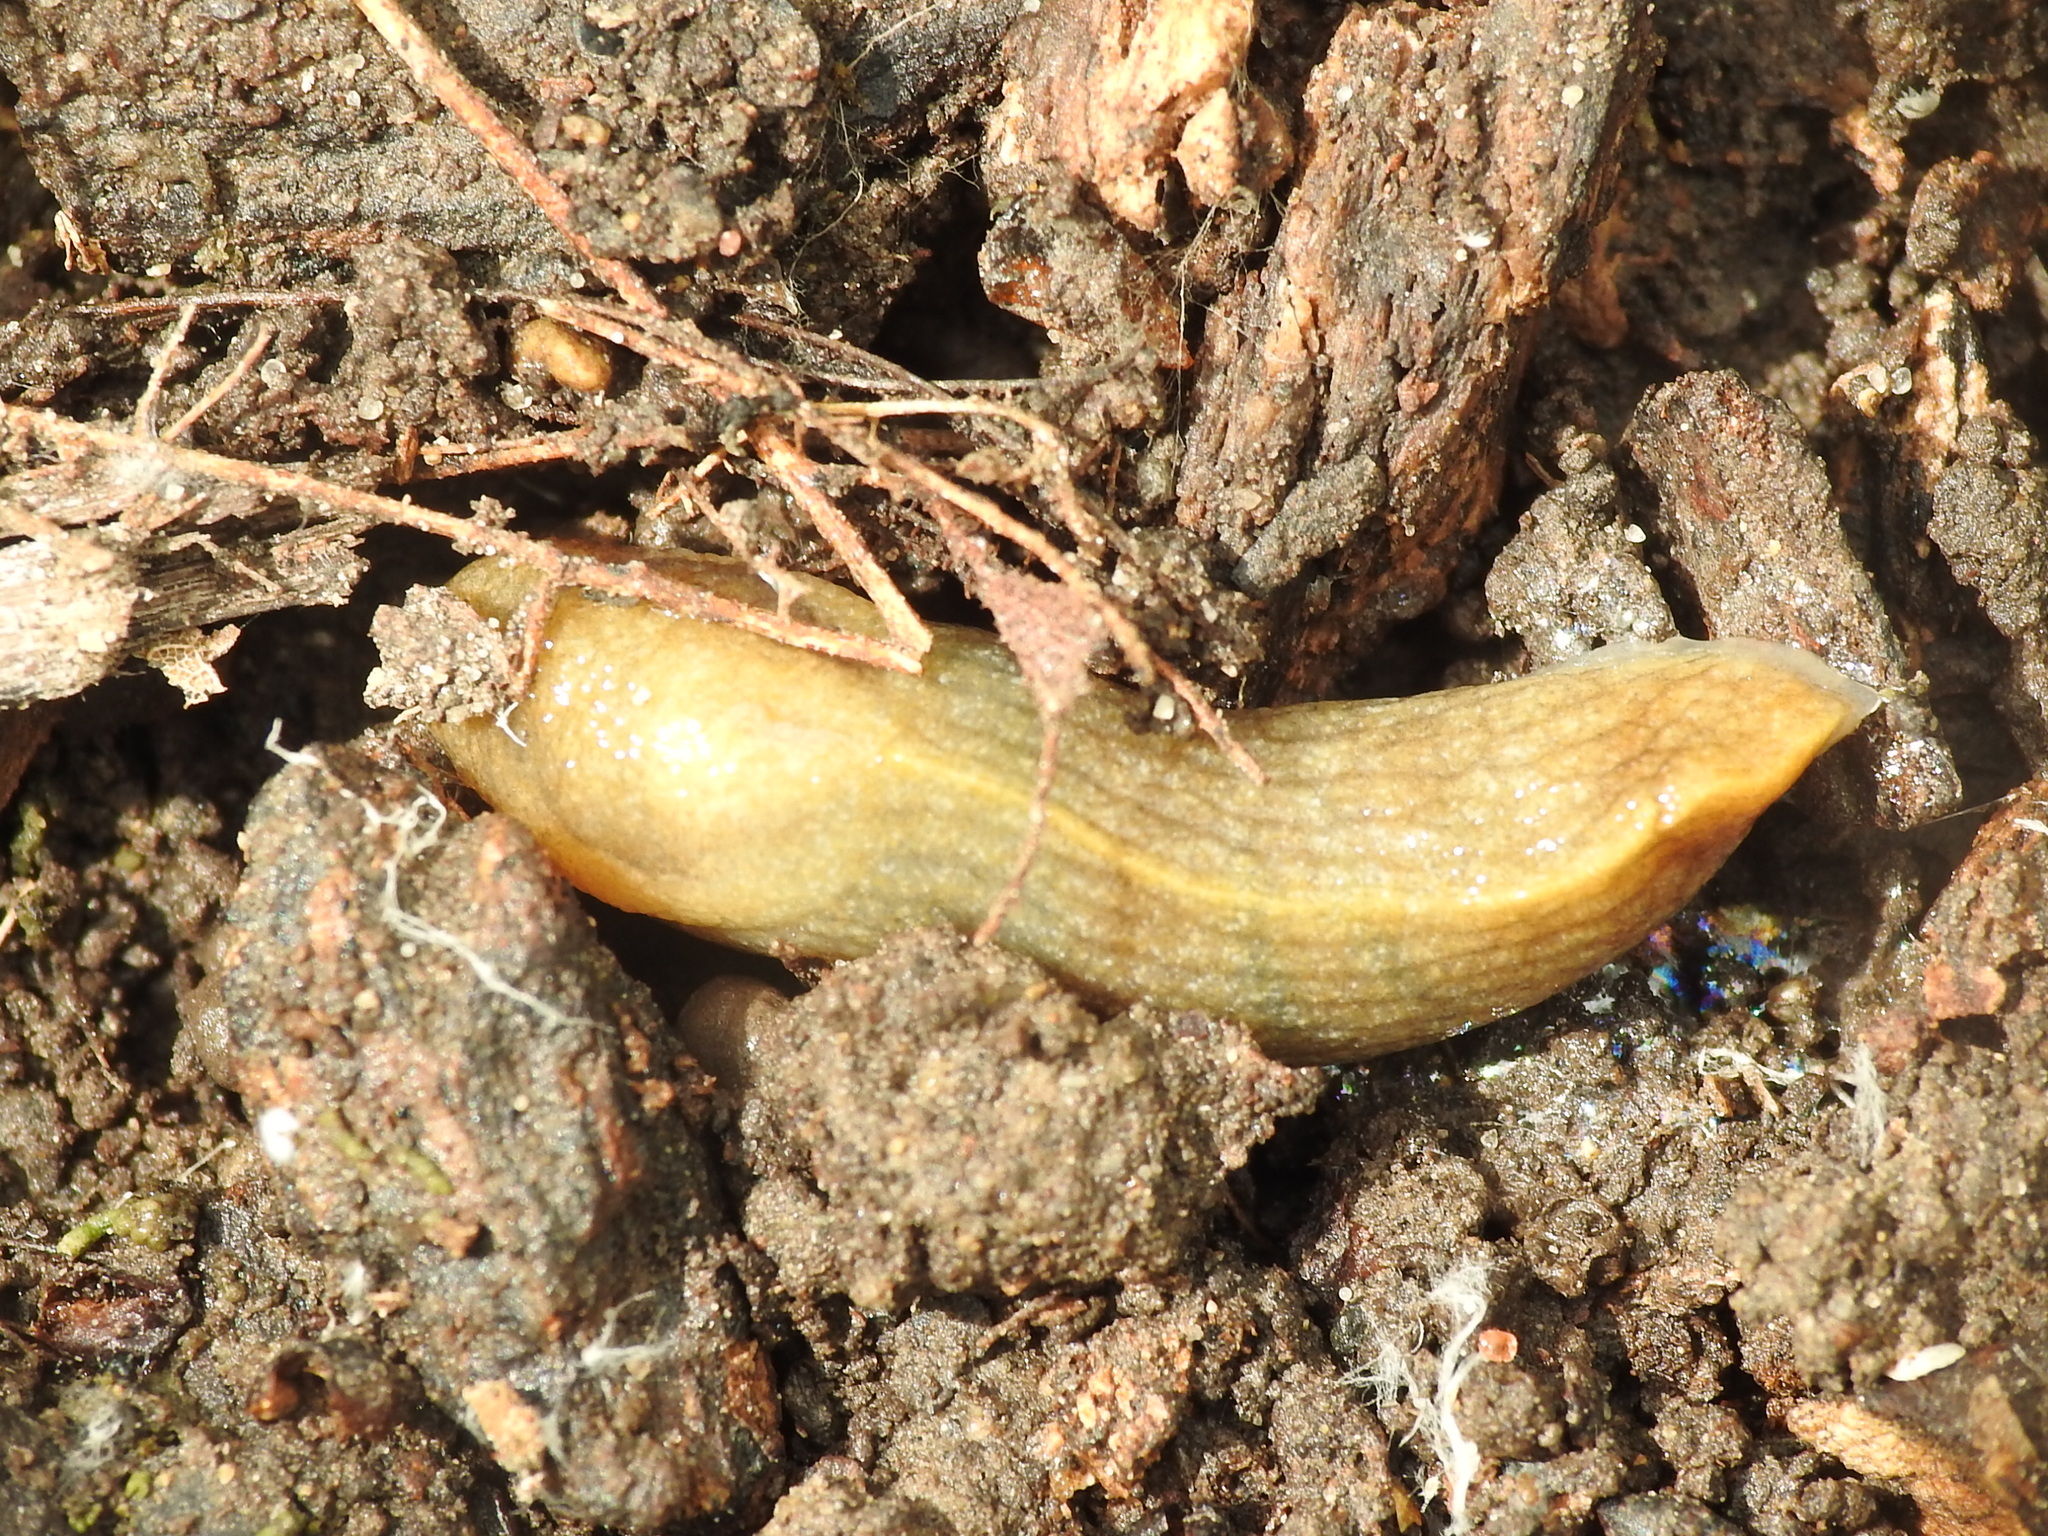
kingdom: Animalia
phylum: Mollusca
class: Gastropoda
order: Stylommatophora
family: Milacidae
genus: Milax
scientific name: Milax gagates
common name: Greenhouse slug
